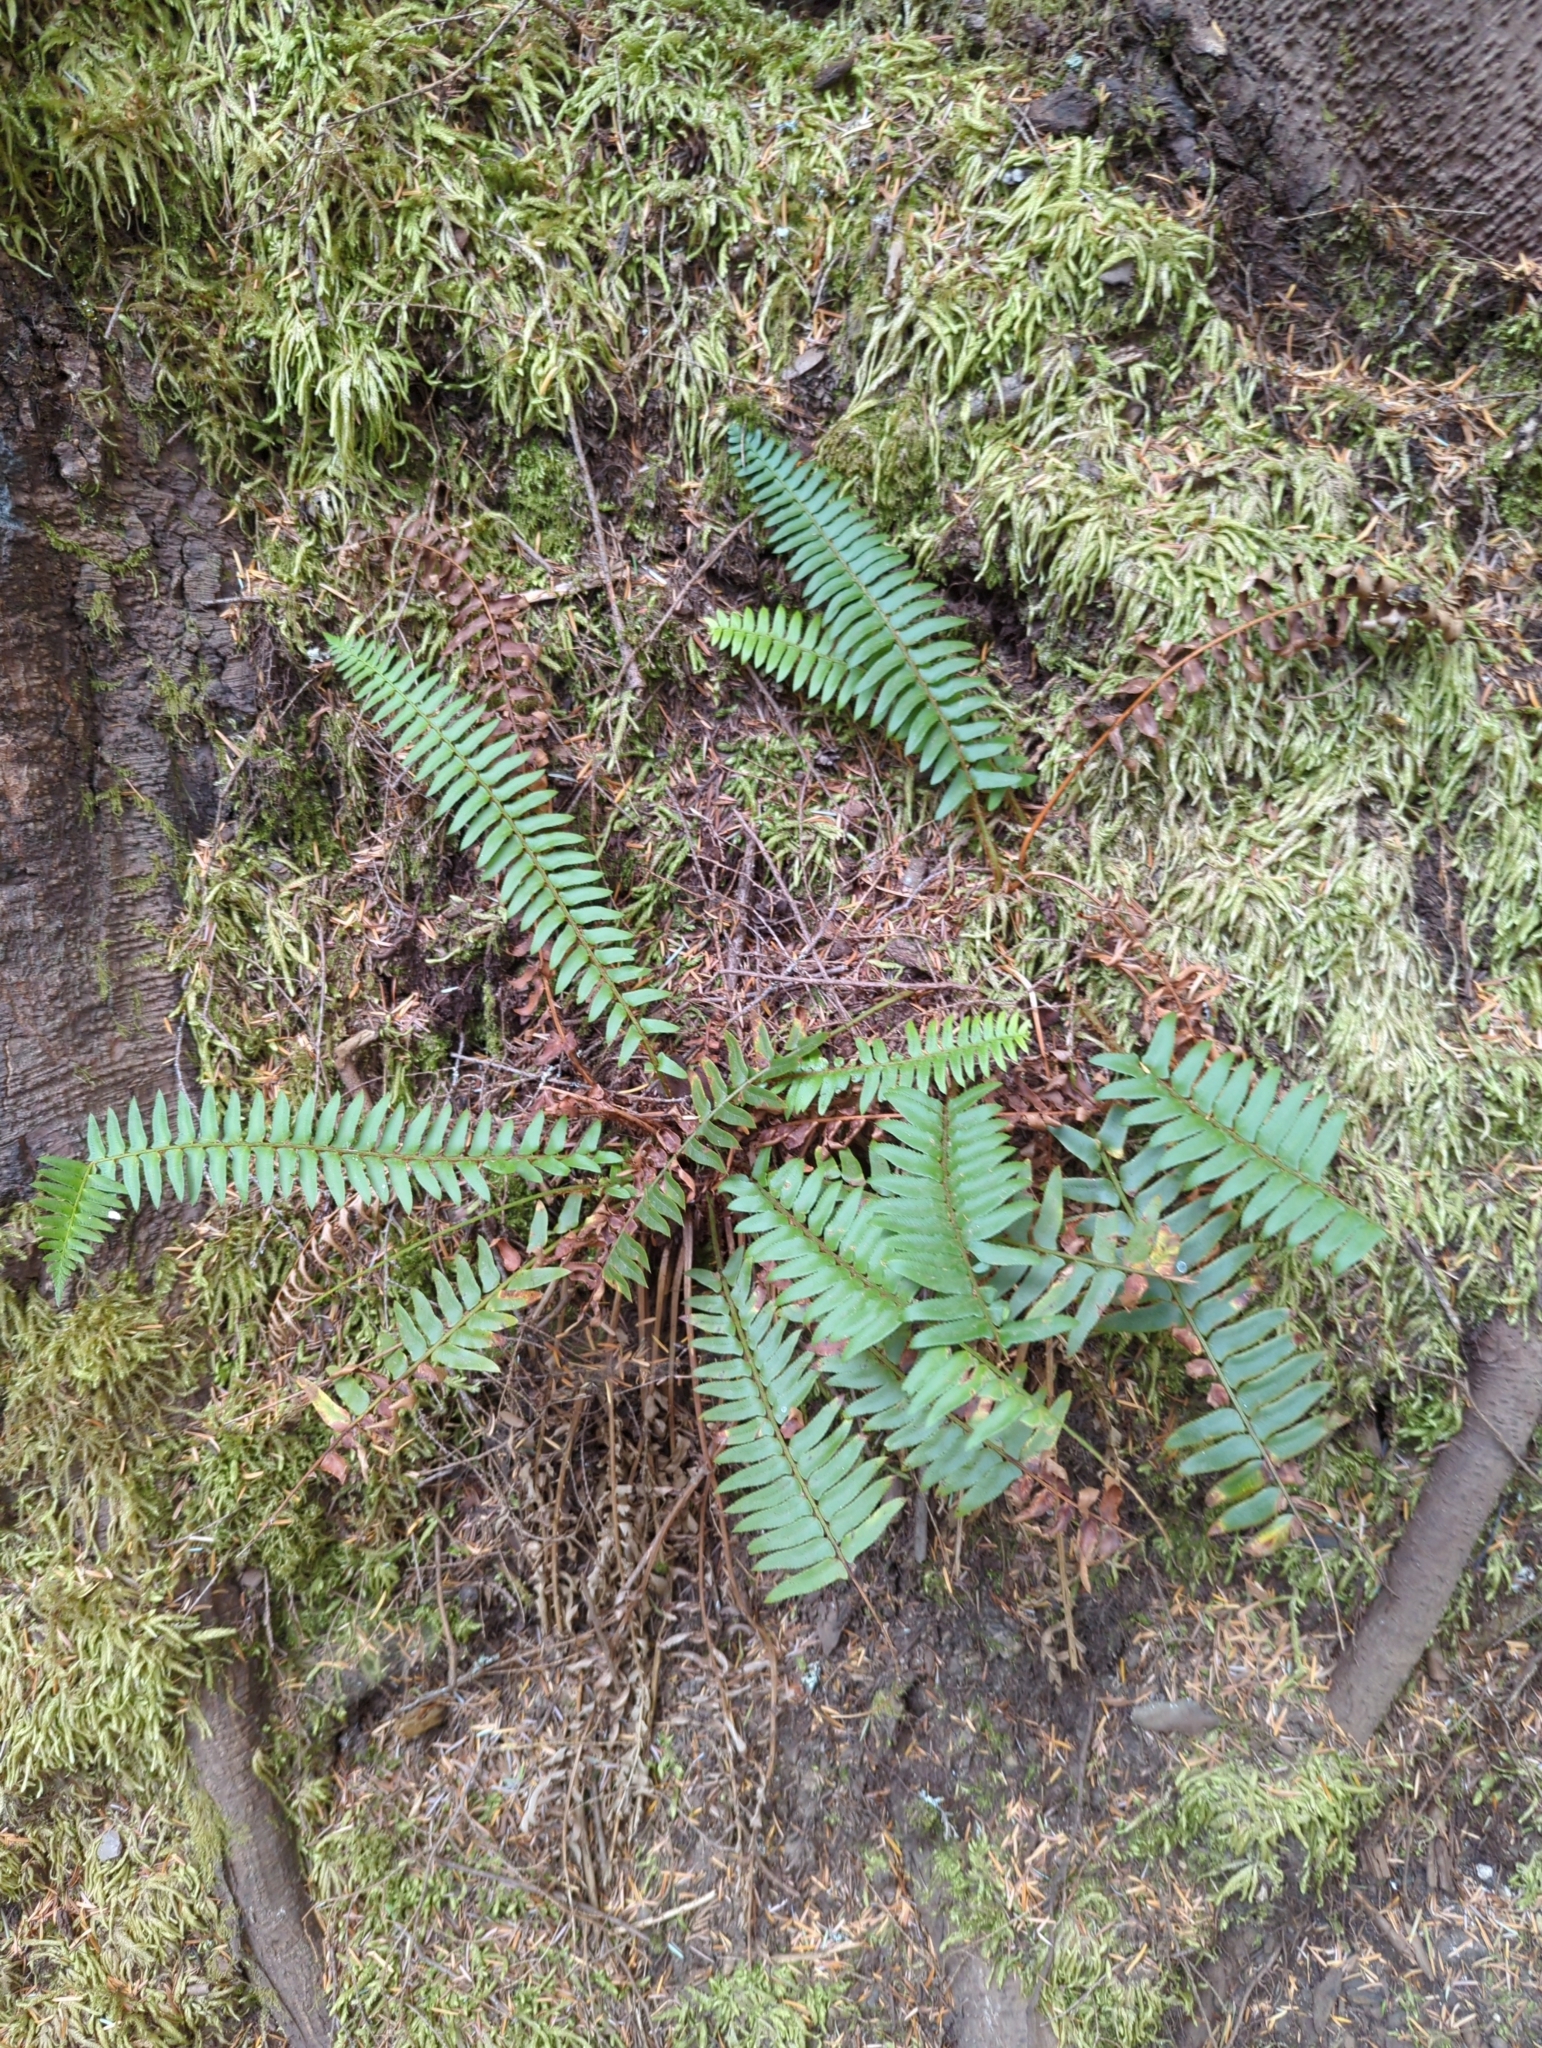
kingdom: Plantae
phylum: Tracheophyta
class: Polypodiopsida
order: Polypodiales
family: Dryopteridaceae
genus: Polystichum
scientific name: Polystichum munitum
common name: Western sword-fern
